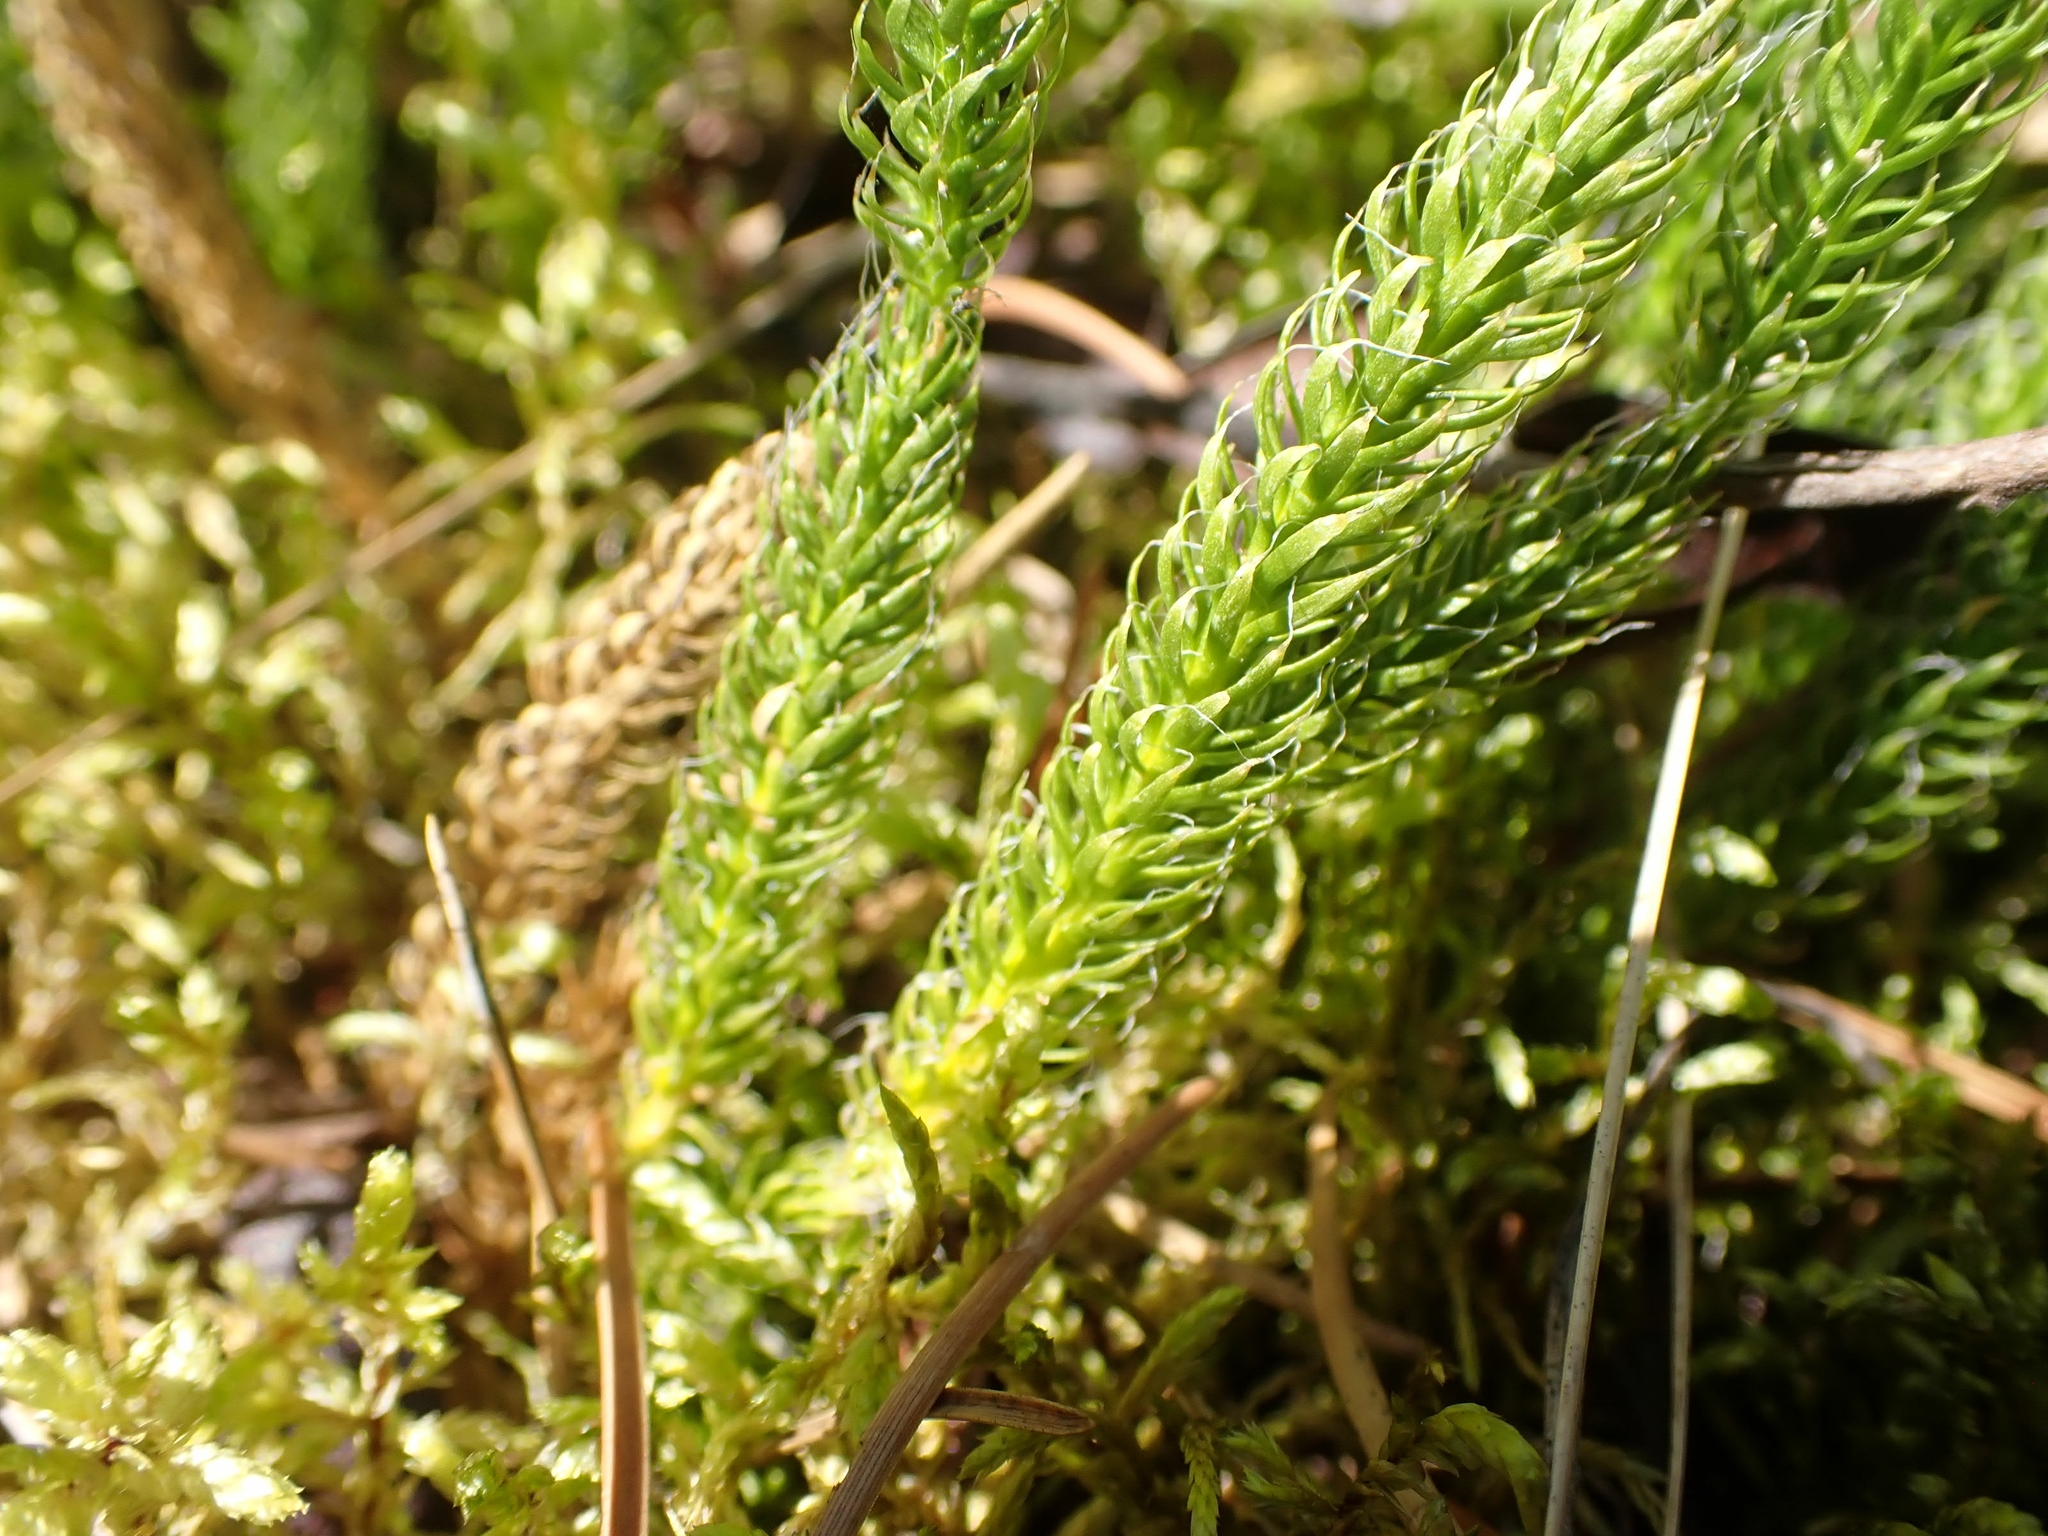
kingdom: Plantae
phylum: Tracheophyta
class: Lycopodiopsida
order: Lycopodiales
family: Lycopodiaceae
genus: Lycopodium
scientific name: Lycopodium lagopus
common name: One-cone clubmoss
